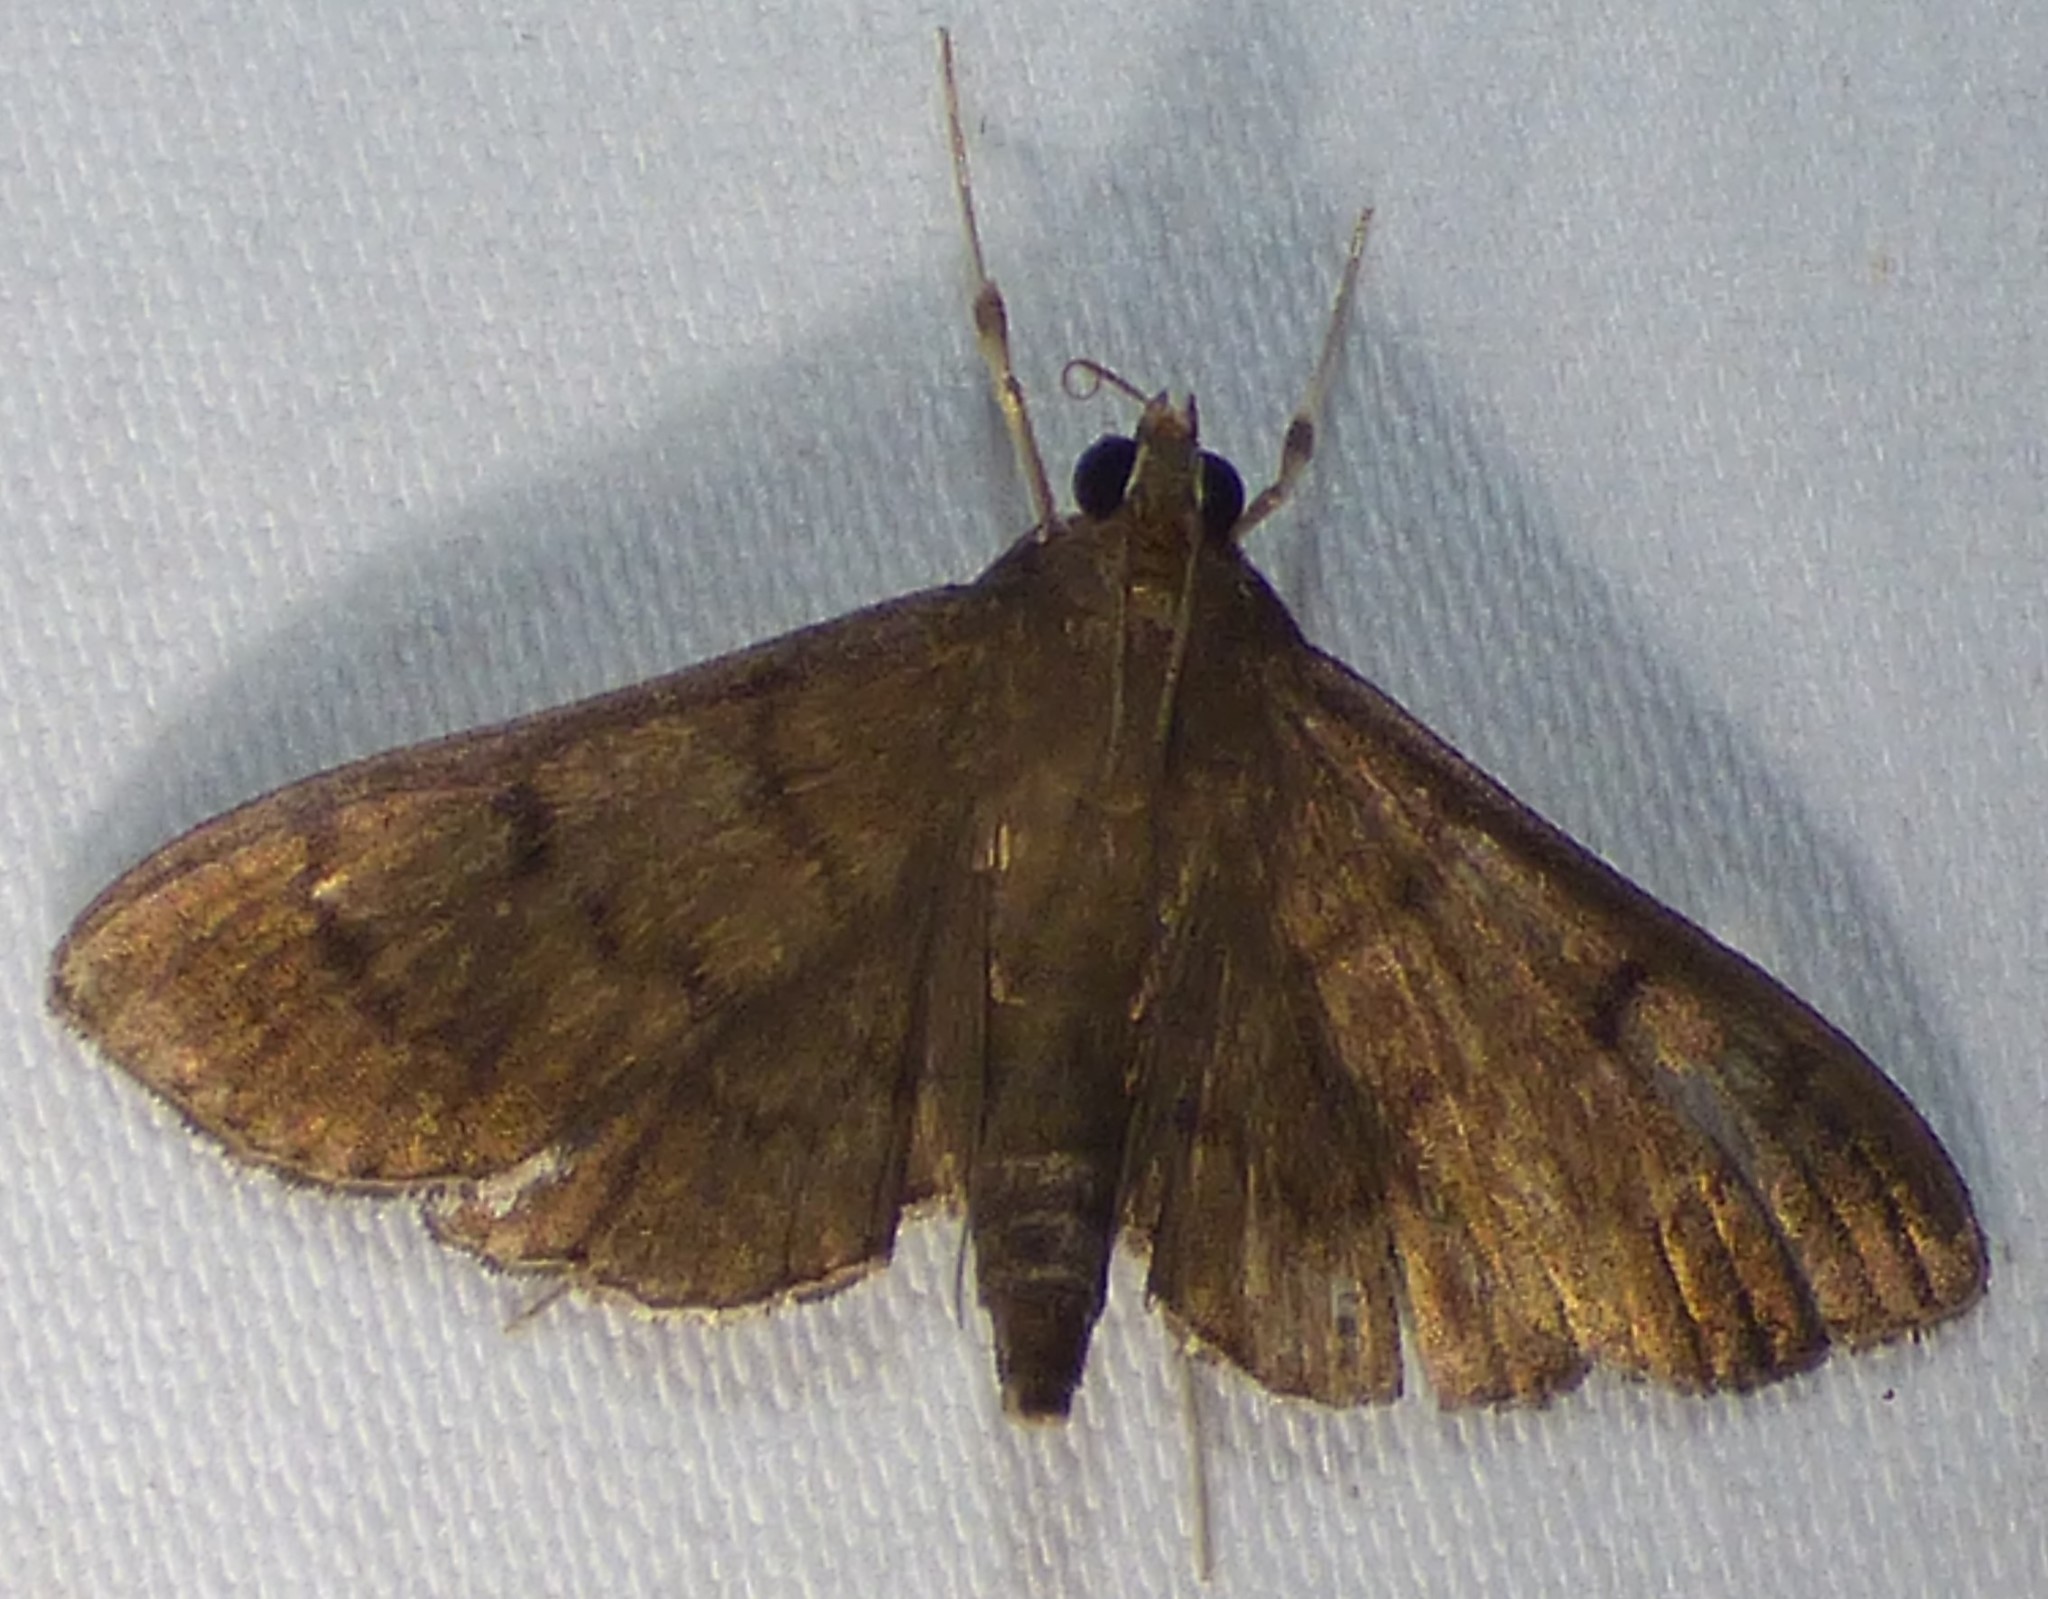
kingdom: Animalia
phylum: Arthropoda
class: Insecta
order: Lepidoptera
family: Crambidae
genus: Herpetogramma
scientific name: Herpetogramma phaeopteralis
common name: Dusky herpetogramma moth
